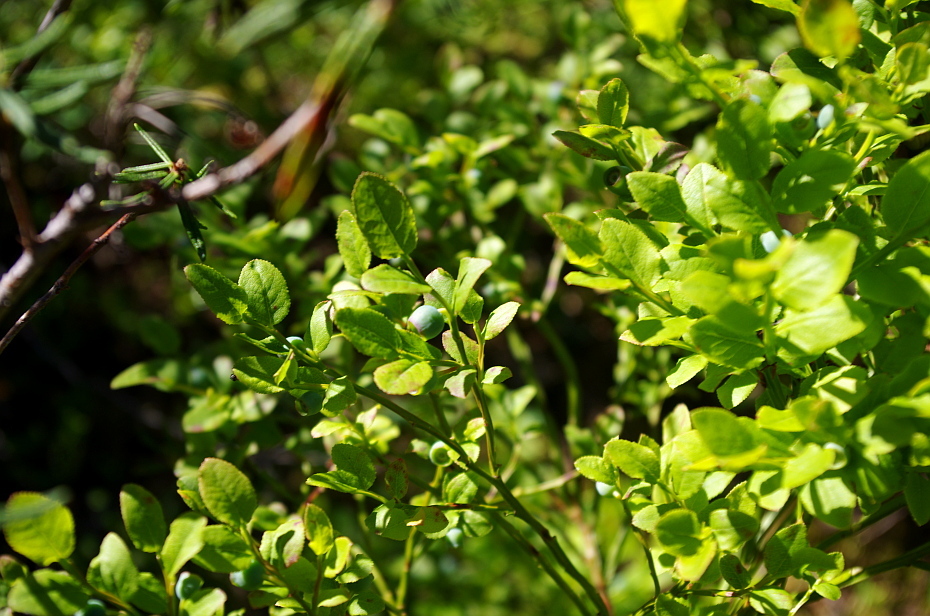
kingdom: Plantae
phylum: Tracheophyta
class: Magnoliopsida
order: Ericales
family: Ericaceae
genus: Vaccinium
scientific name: Vaccinium myrtillus
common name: Bilberry
